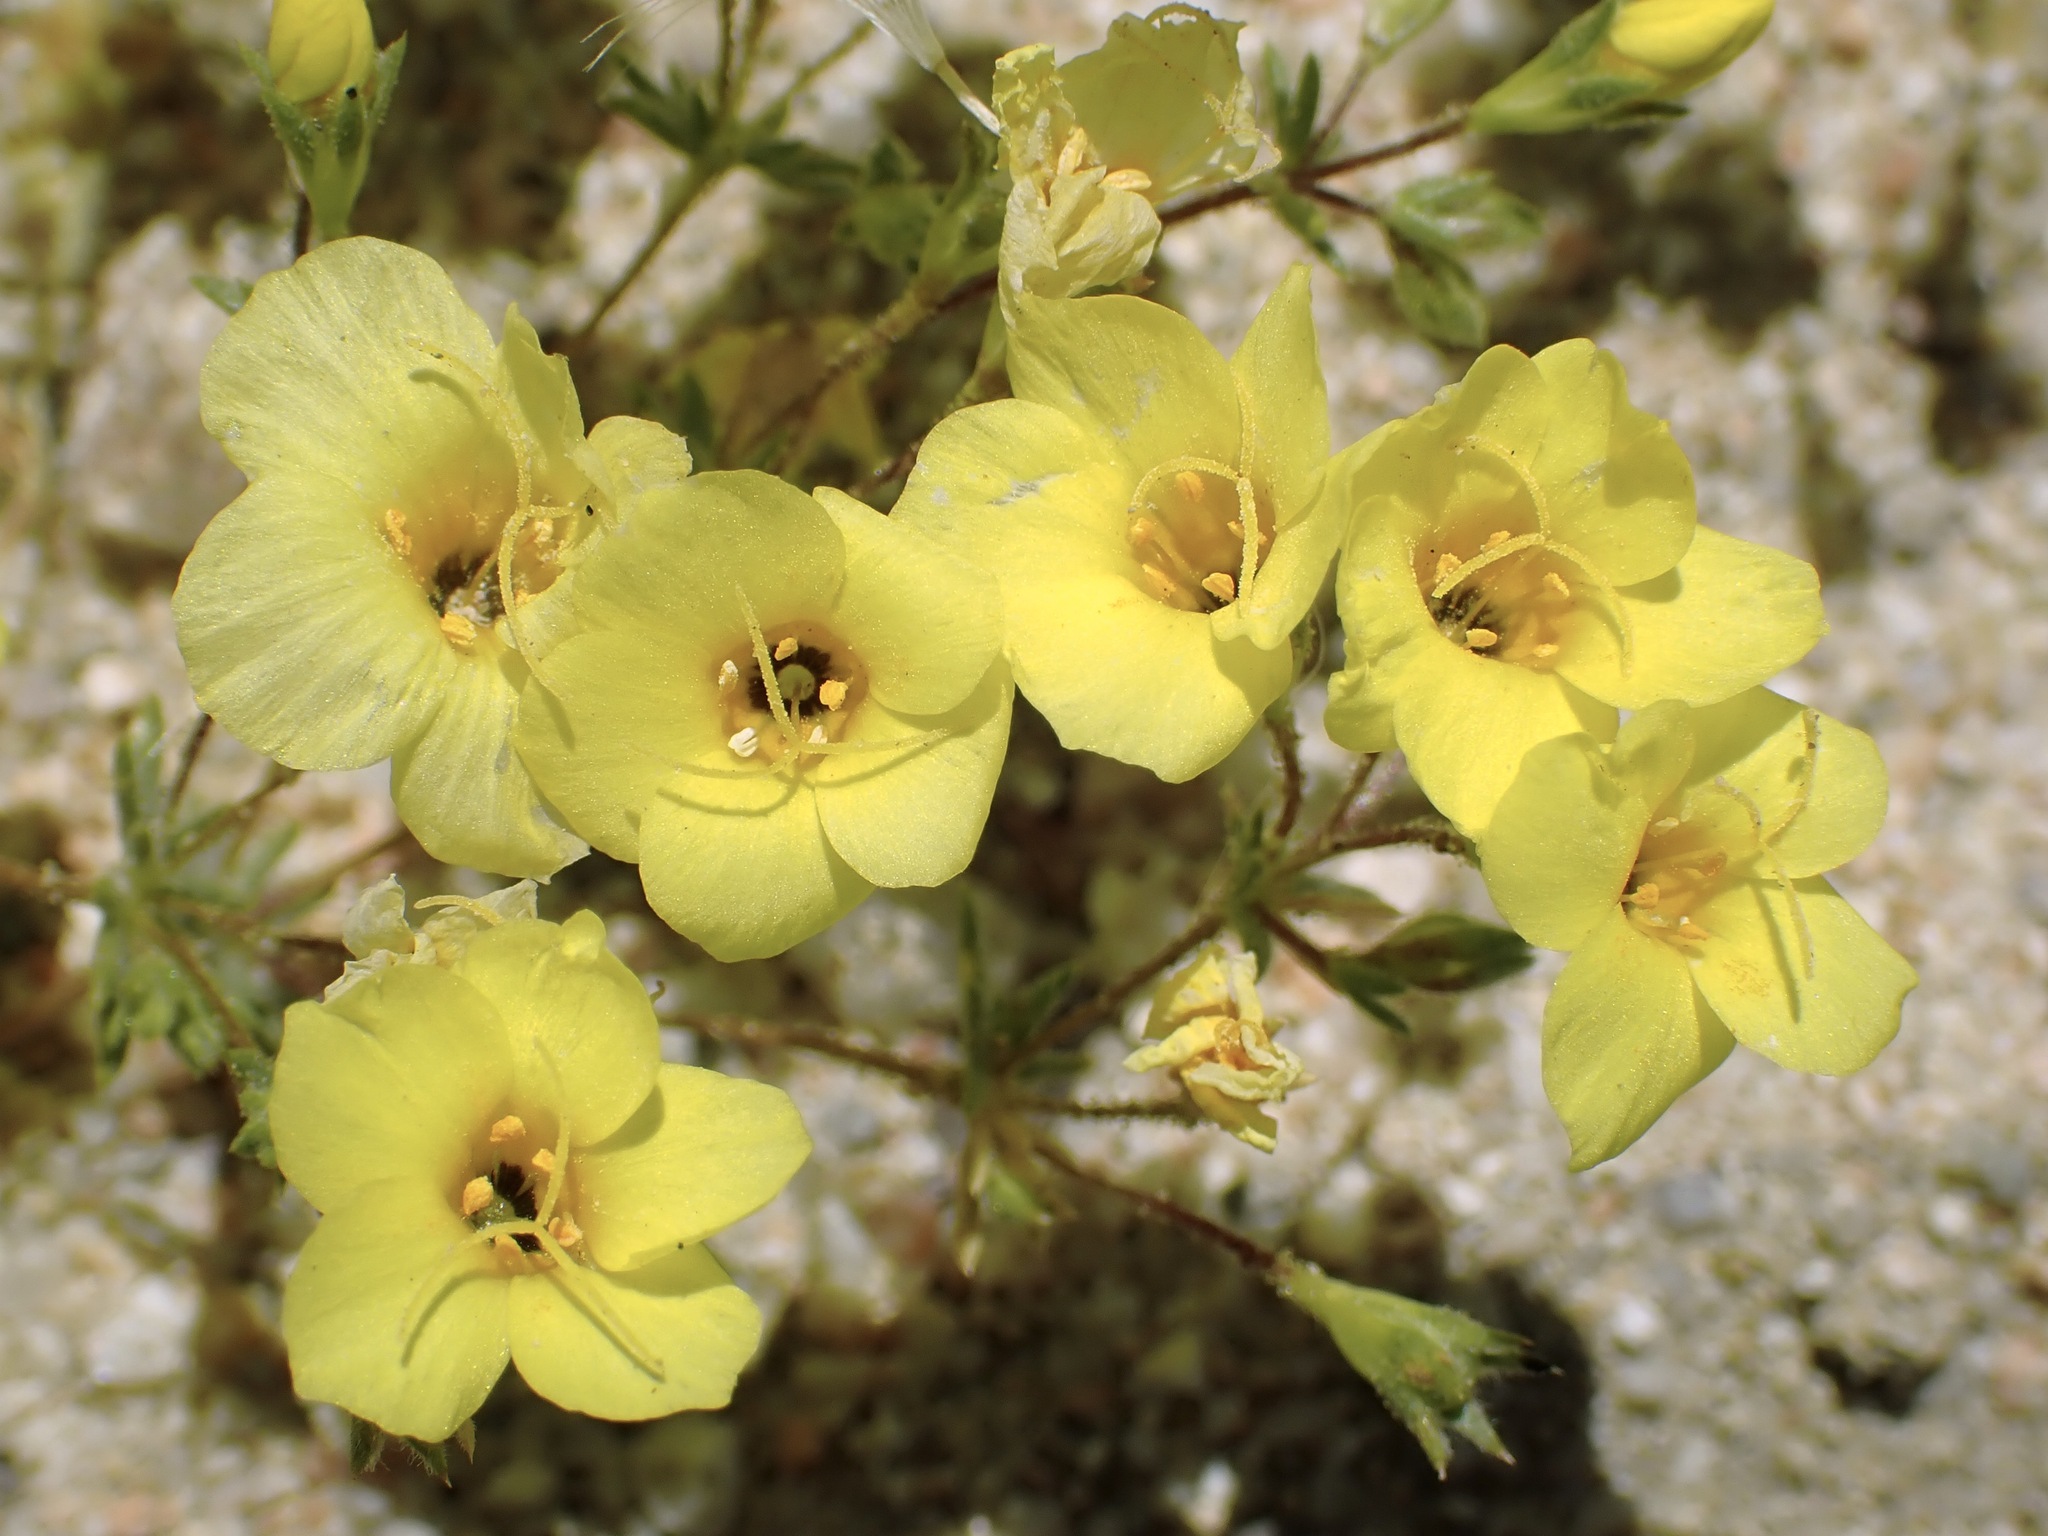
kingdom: Plantae
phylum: Tracheophyta
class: Magnoliopsida
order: Ericales
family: Polemoniaceae
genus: Leptosiphon
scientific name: Leptosiphon chrysanthus
